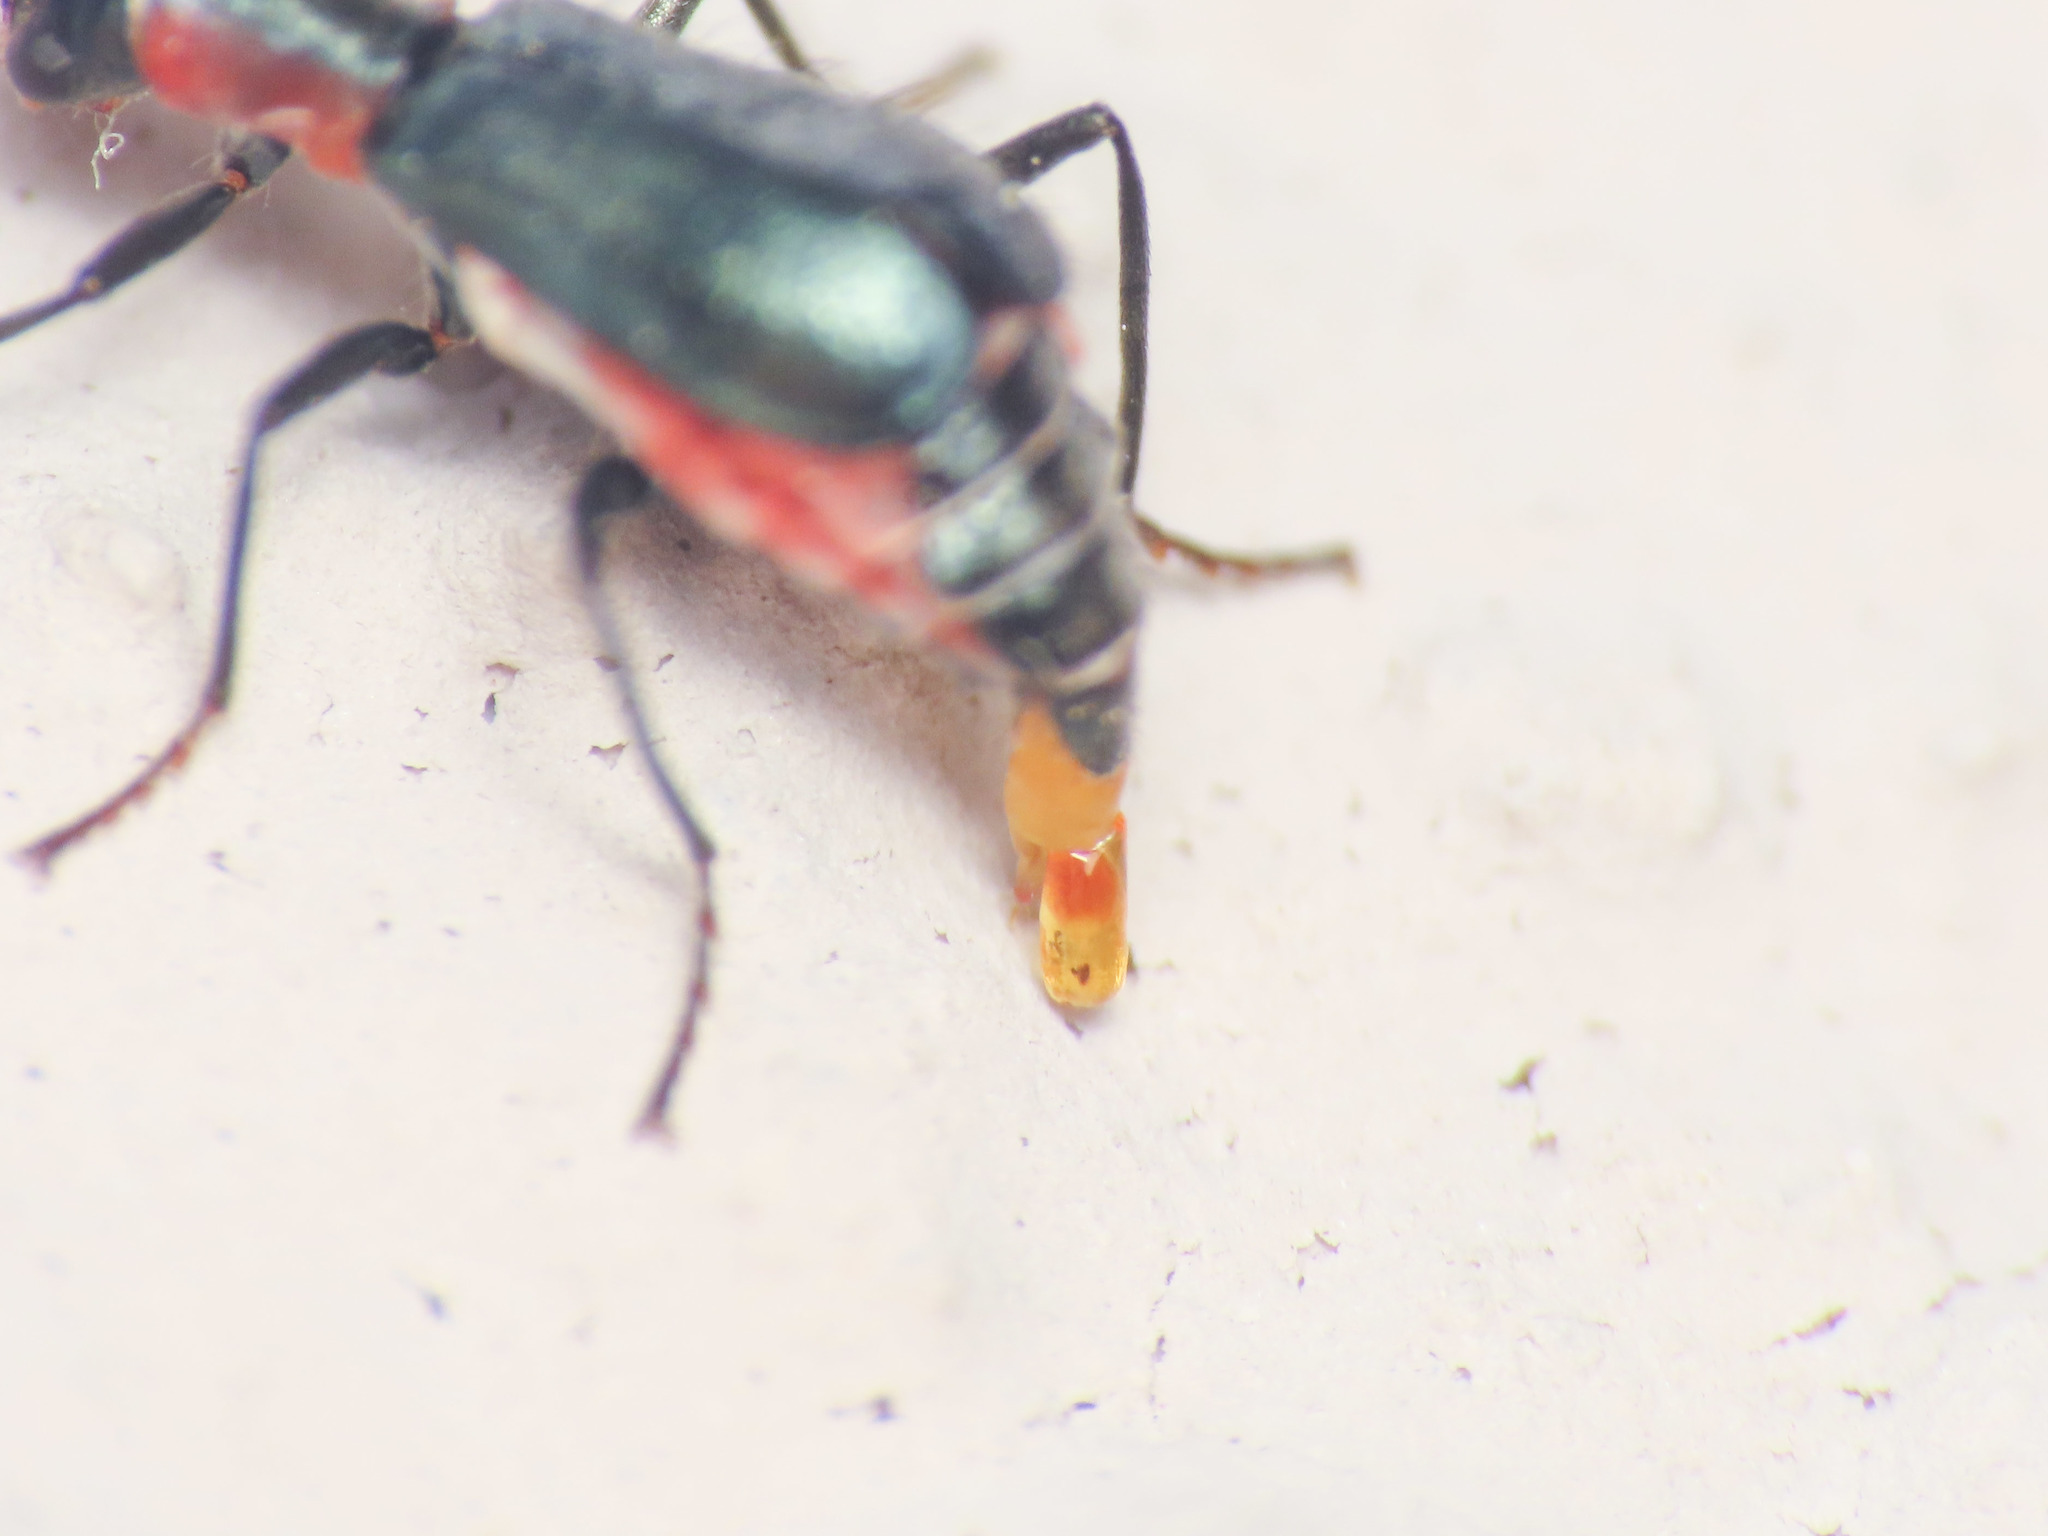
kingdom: Animalia
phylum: Arthropoda
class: Insecta
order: Coleoptera
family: Melyridae
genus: Cyrtosus
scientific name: Cyrtosus cyanipennis
